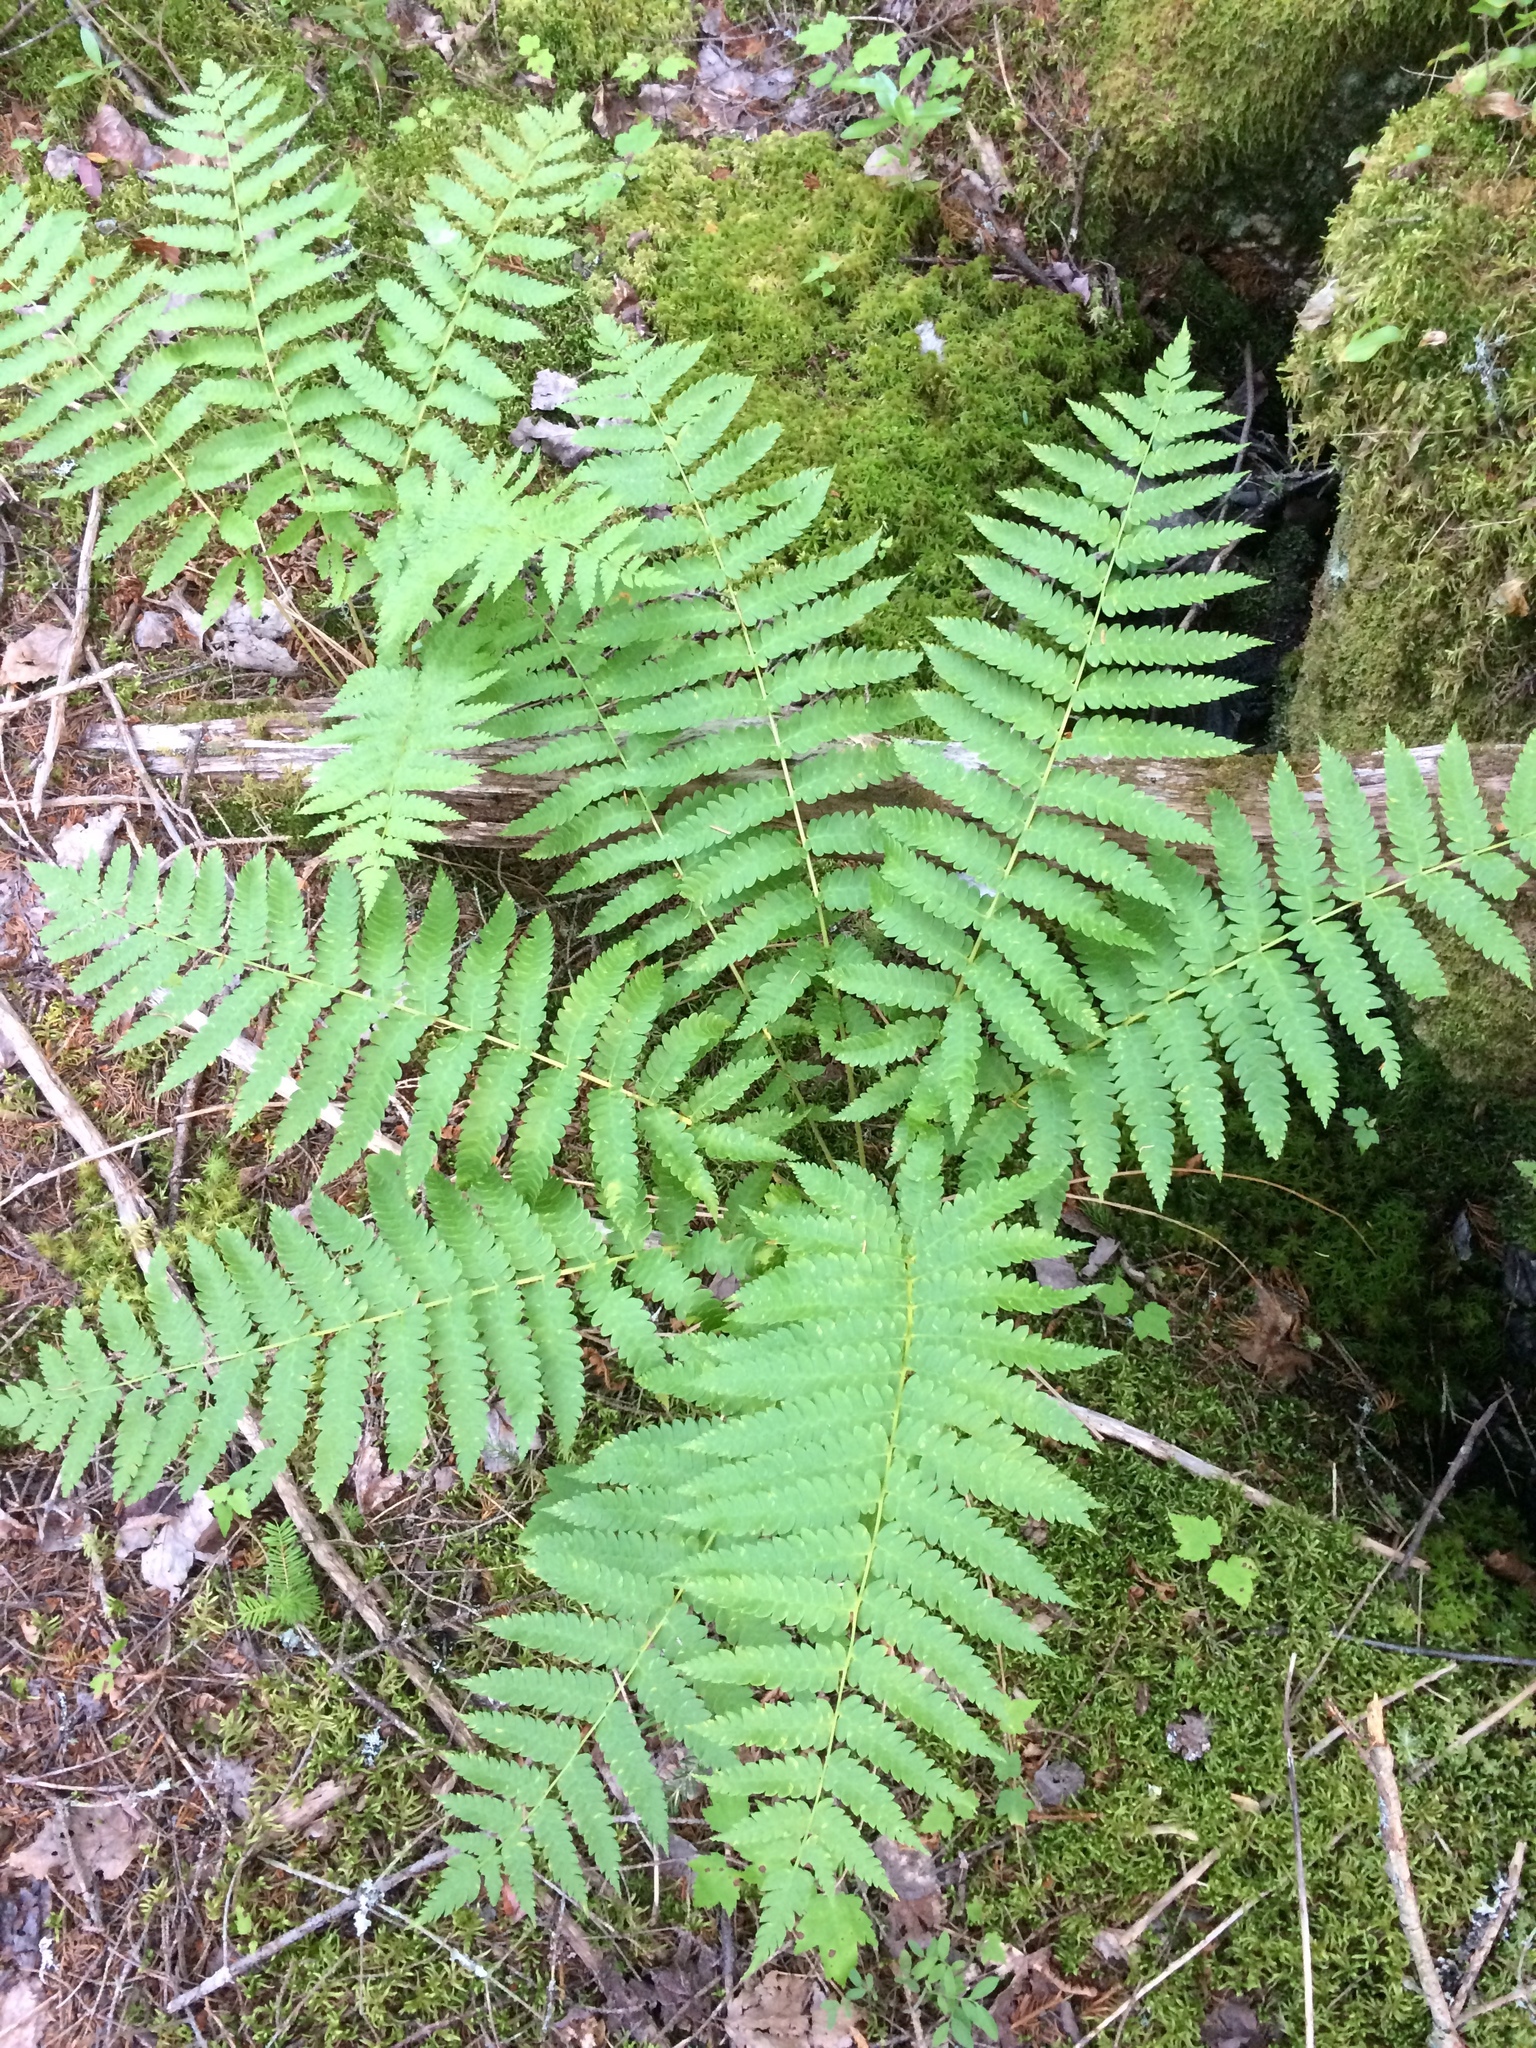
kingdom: Plantae
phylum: Tracheophyta
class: Polypodiopsida
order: Osmundales
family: Osmundaceae
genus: Osmundastrum
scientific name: Osmundastrum cinnamomeum
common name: Cinnamon fern
